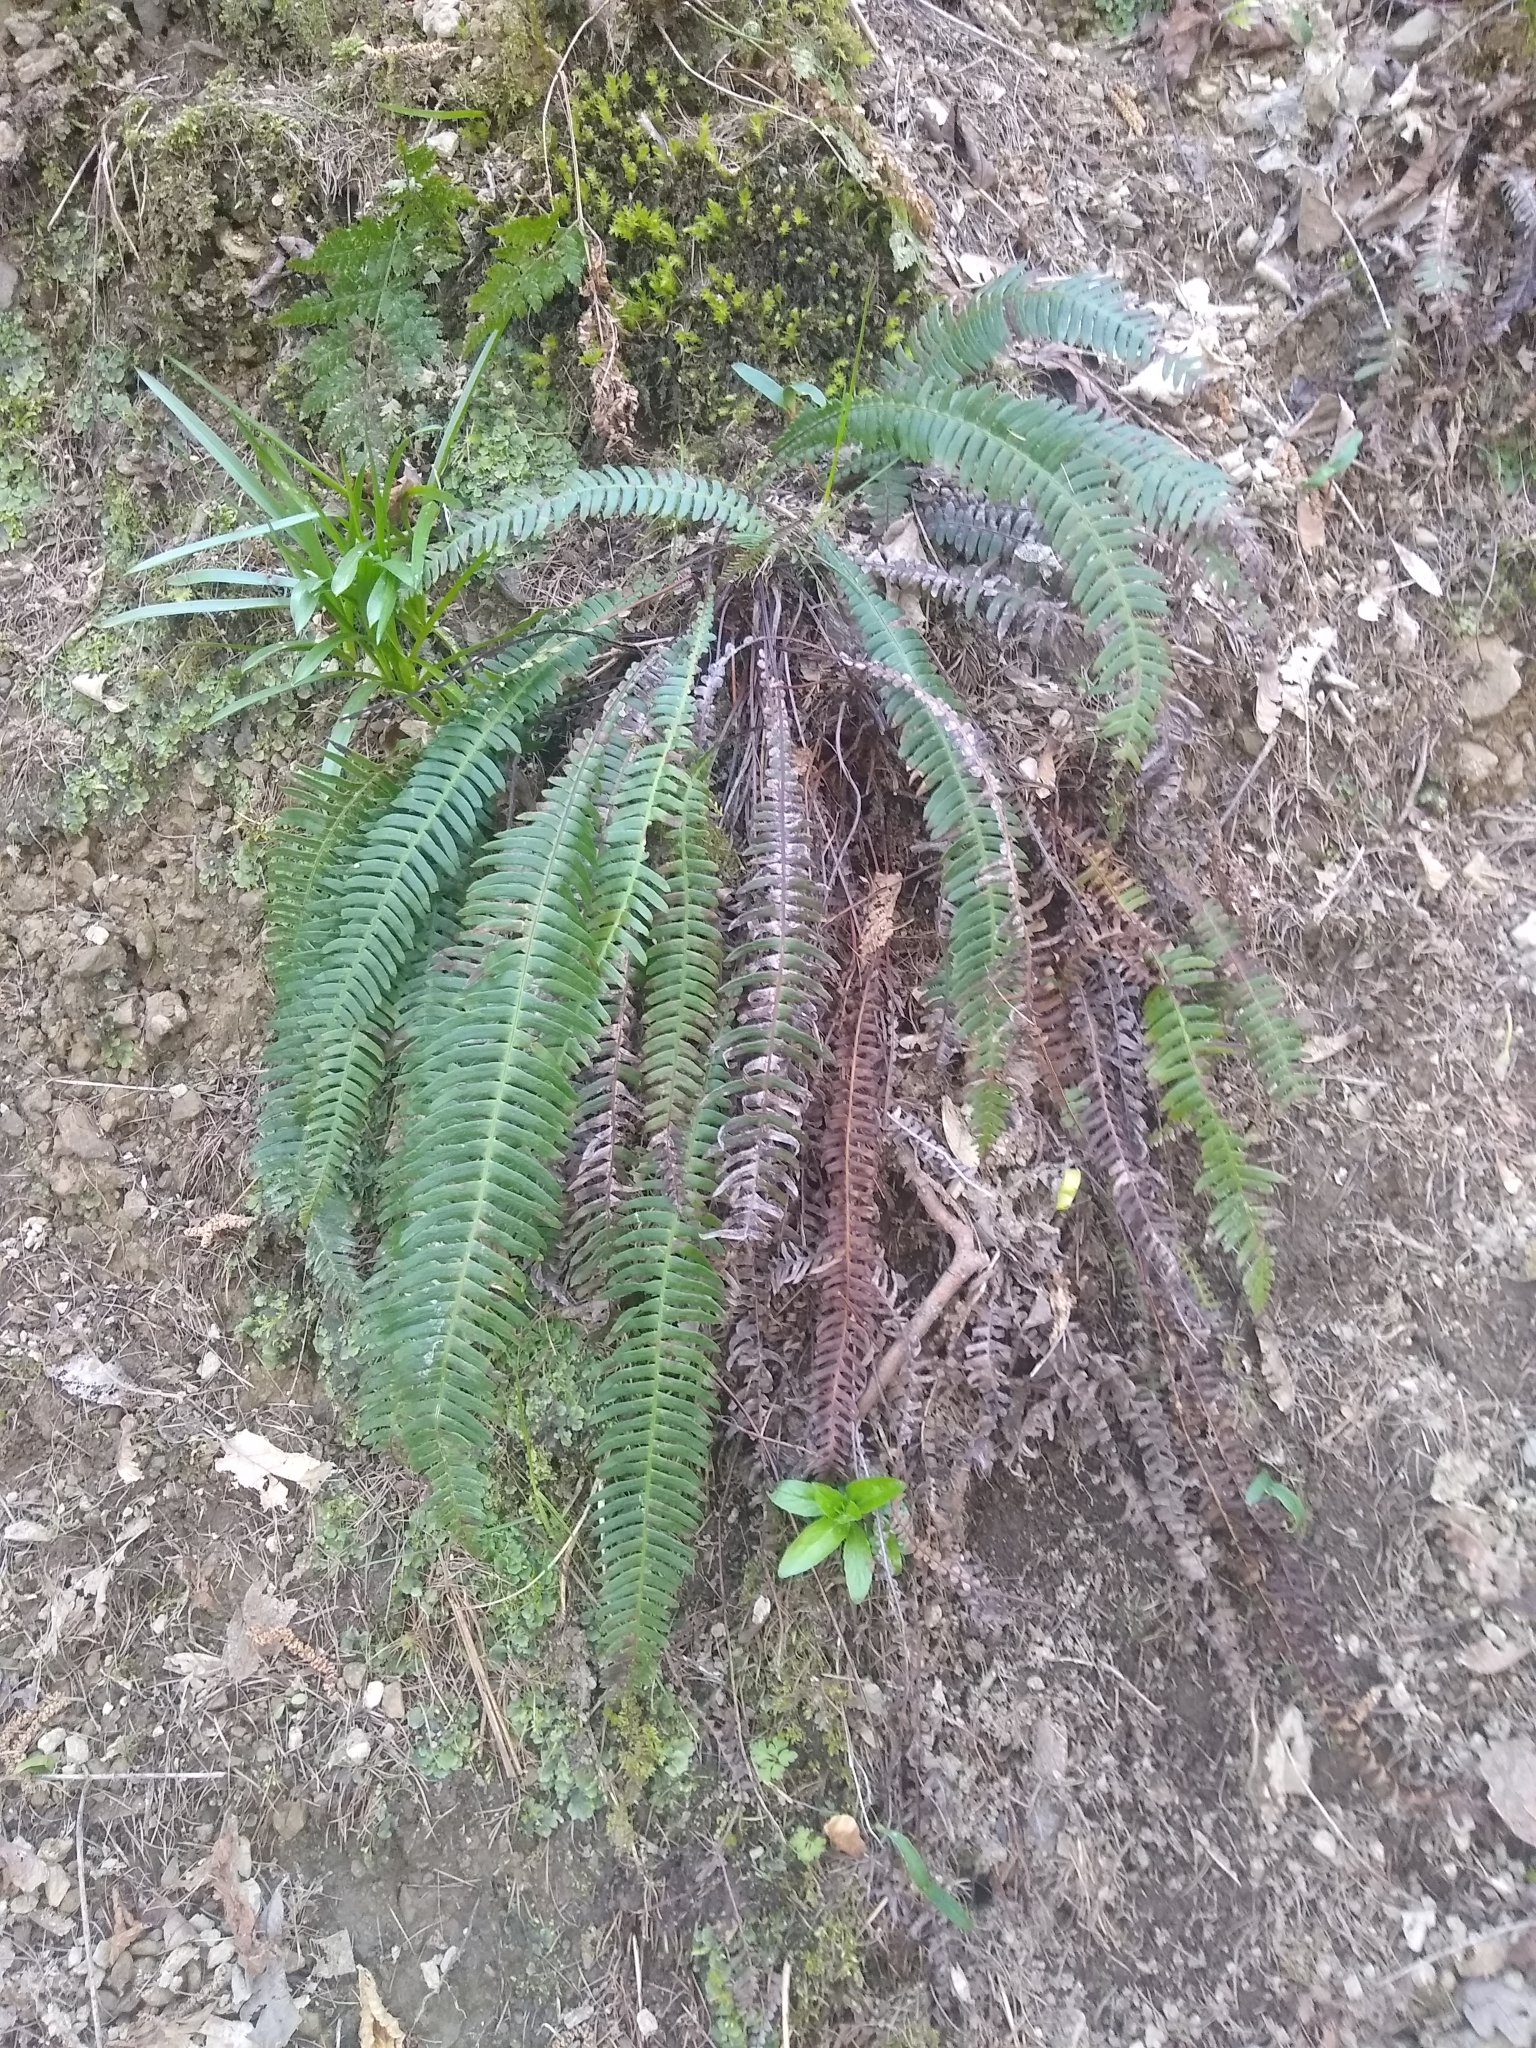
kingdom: Plantae
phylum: Tracheophyta
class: Polypodiopsida
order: Polypodiales
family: Blechnaceae
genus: Struthiopteris
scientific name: Struthiopteris spicant
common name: Deer fern
